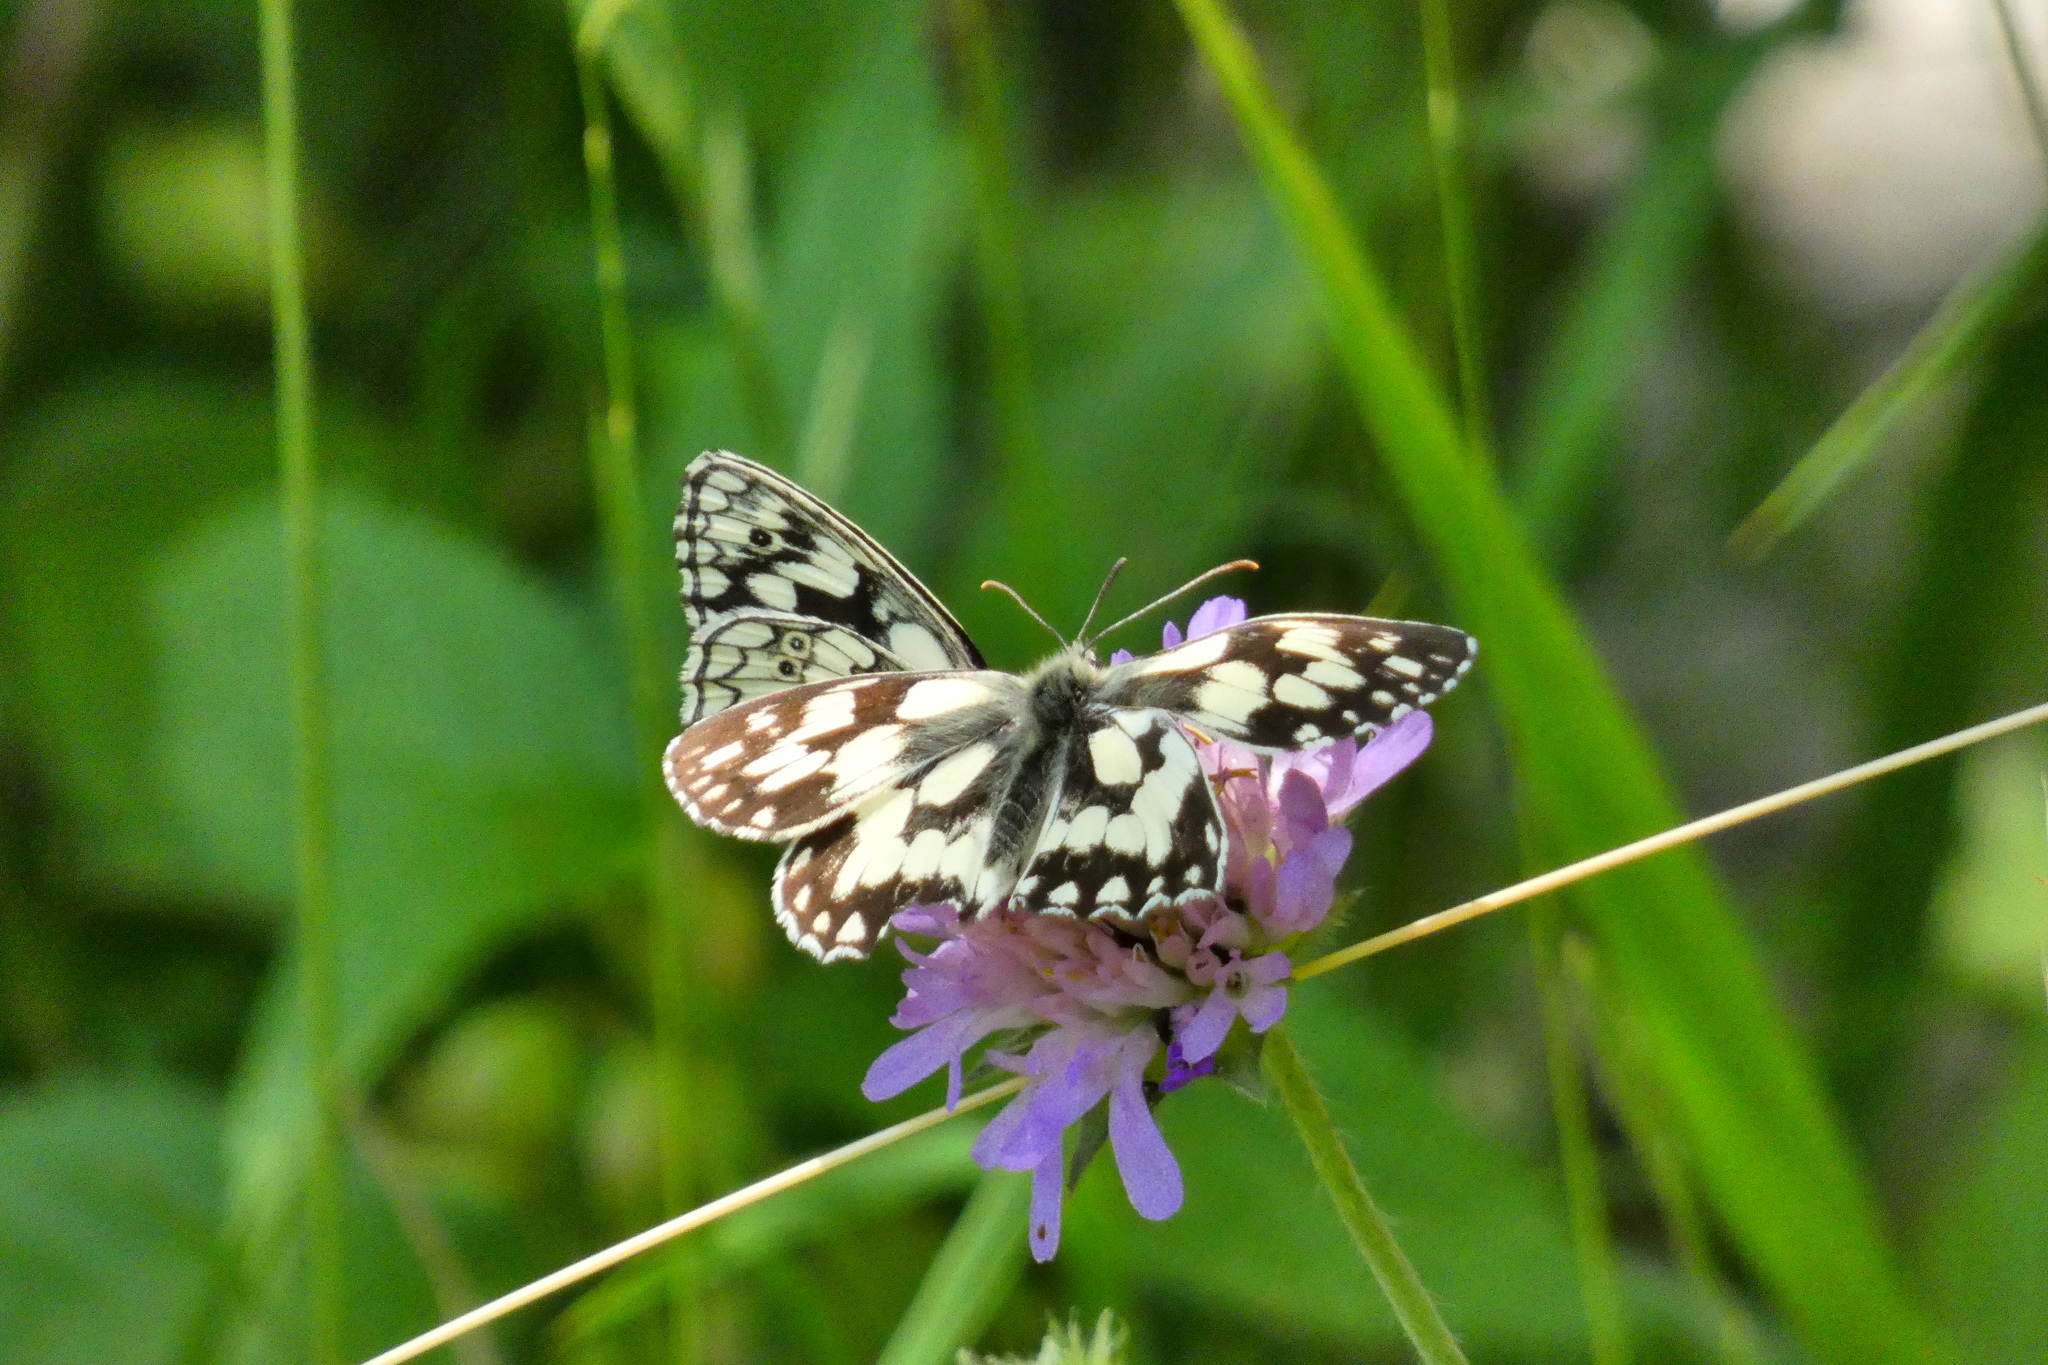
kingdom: Animalia
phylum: Arthropoda
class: Insecta
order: Lepidoptera
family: Nymphalidae
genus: Melanargia
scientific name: Melanargia galathea
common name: Marbled white
